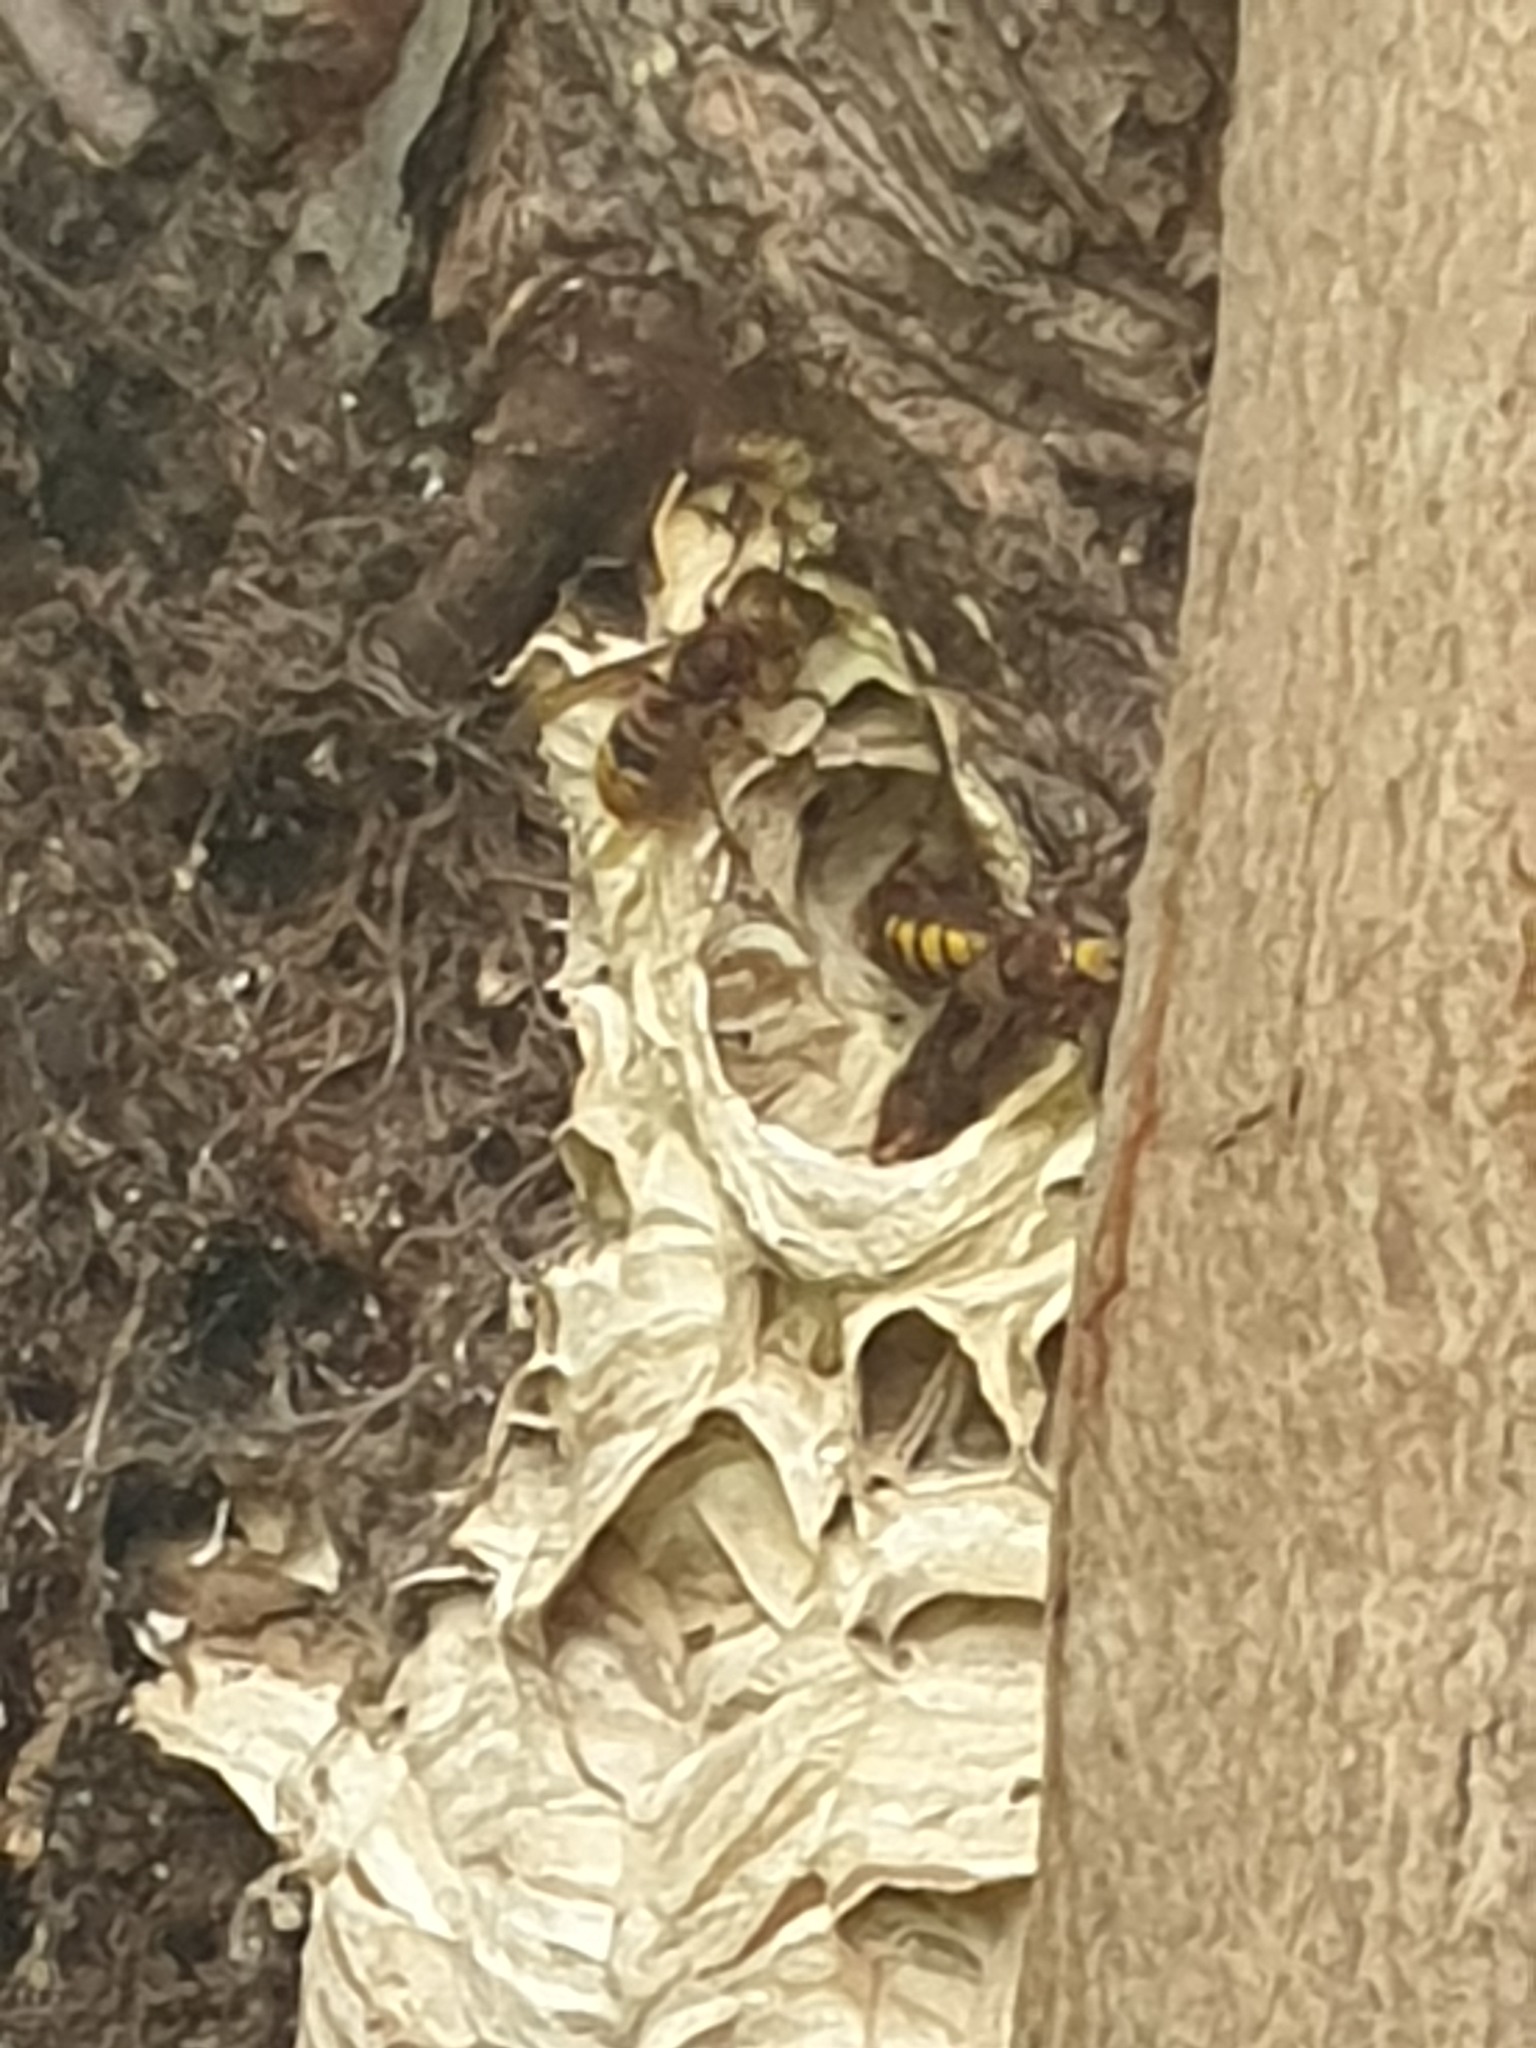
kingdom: Animalia
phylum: Arthropoda
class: Insecta
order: Hymenoptera
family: Vespidae
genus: Vespa
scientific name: Vespa crabro
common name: Hornet
